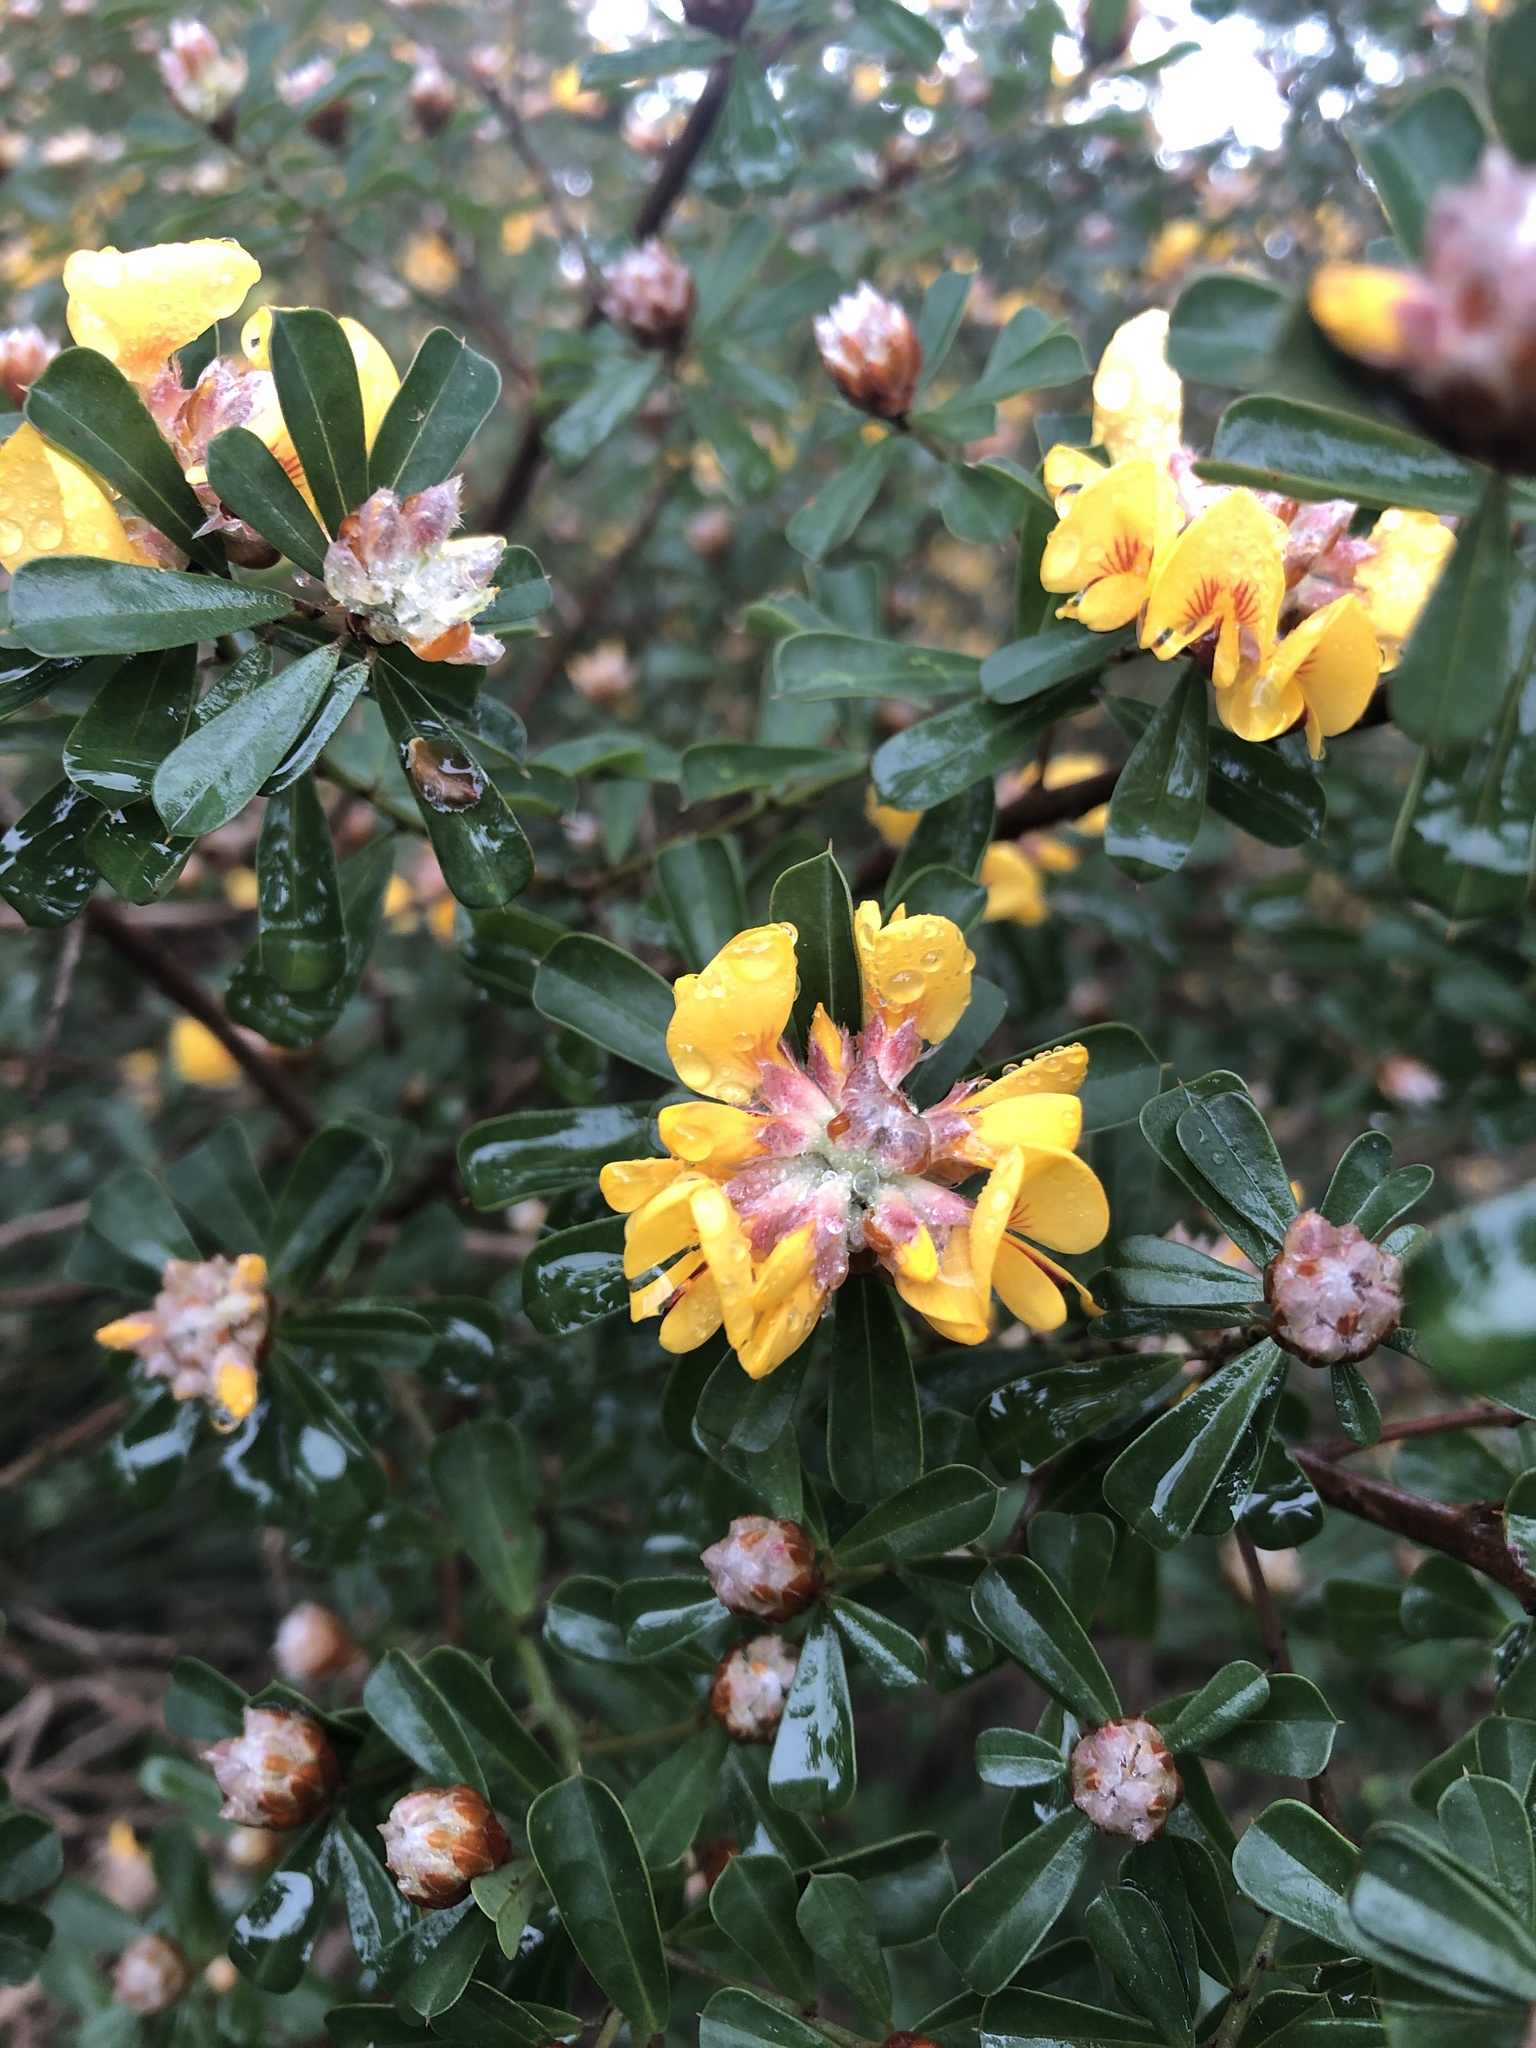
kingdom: Plantae
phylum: Tracheophyta
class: Magnoliopsida
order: Fabales
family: Fabaceae
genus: Pultenaea
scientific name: Pultenaea daphnoides
